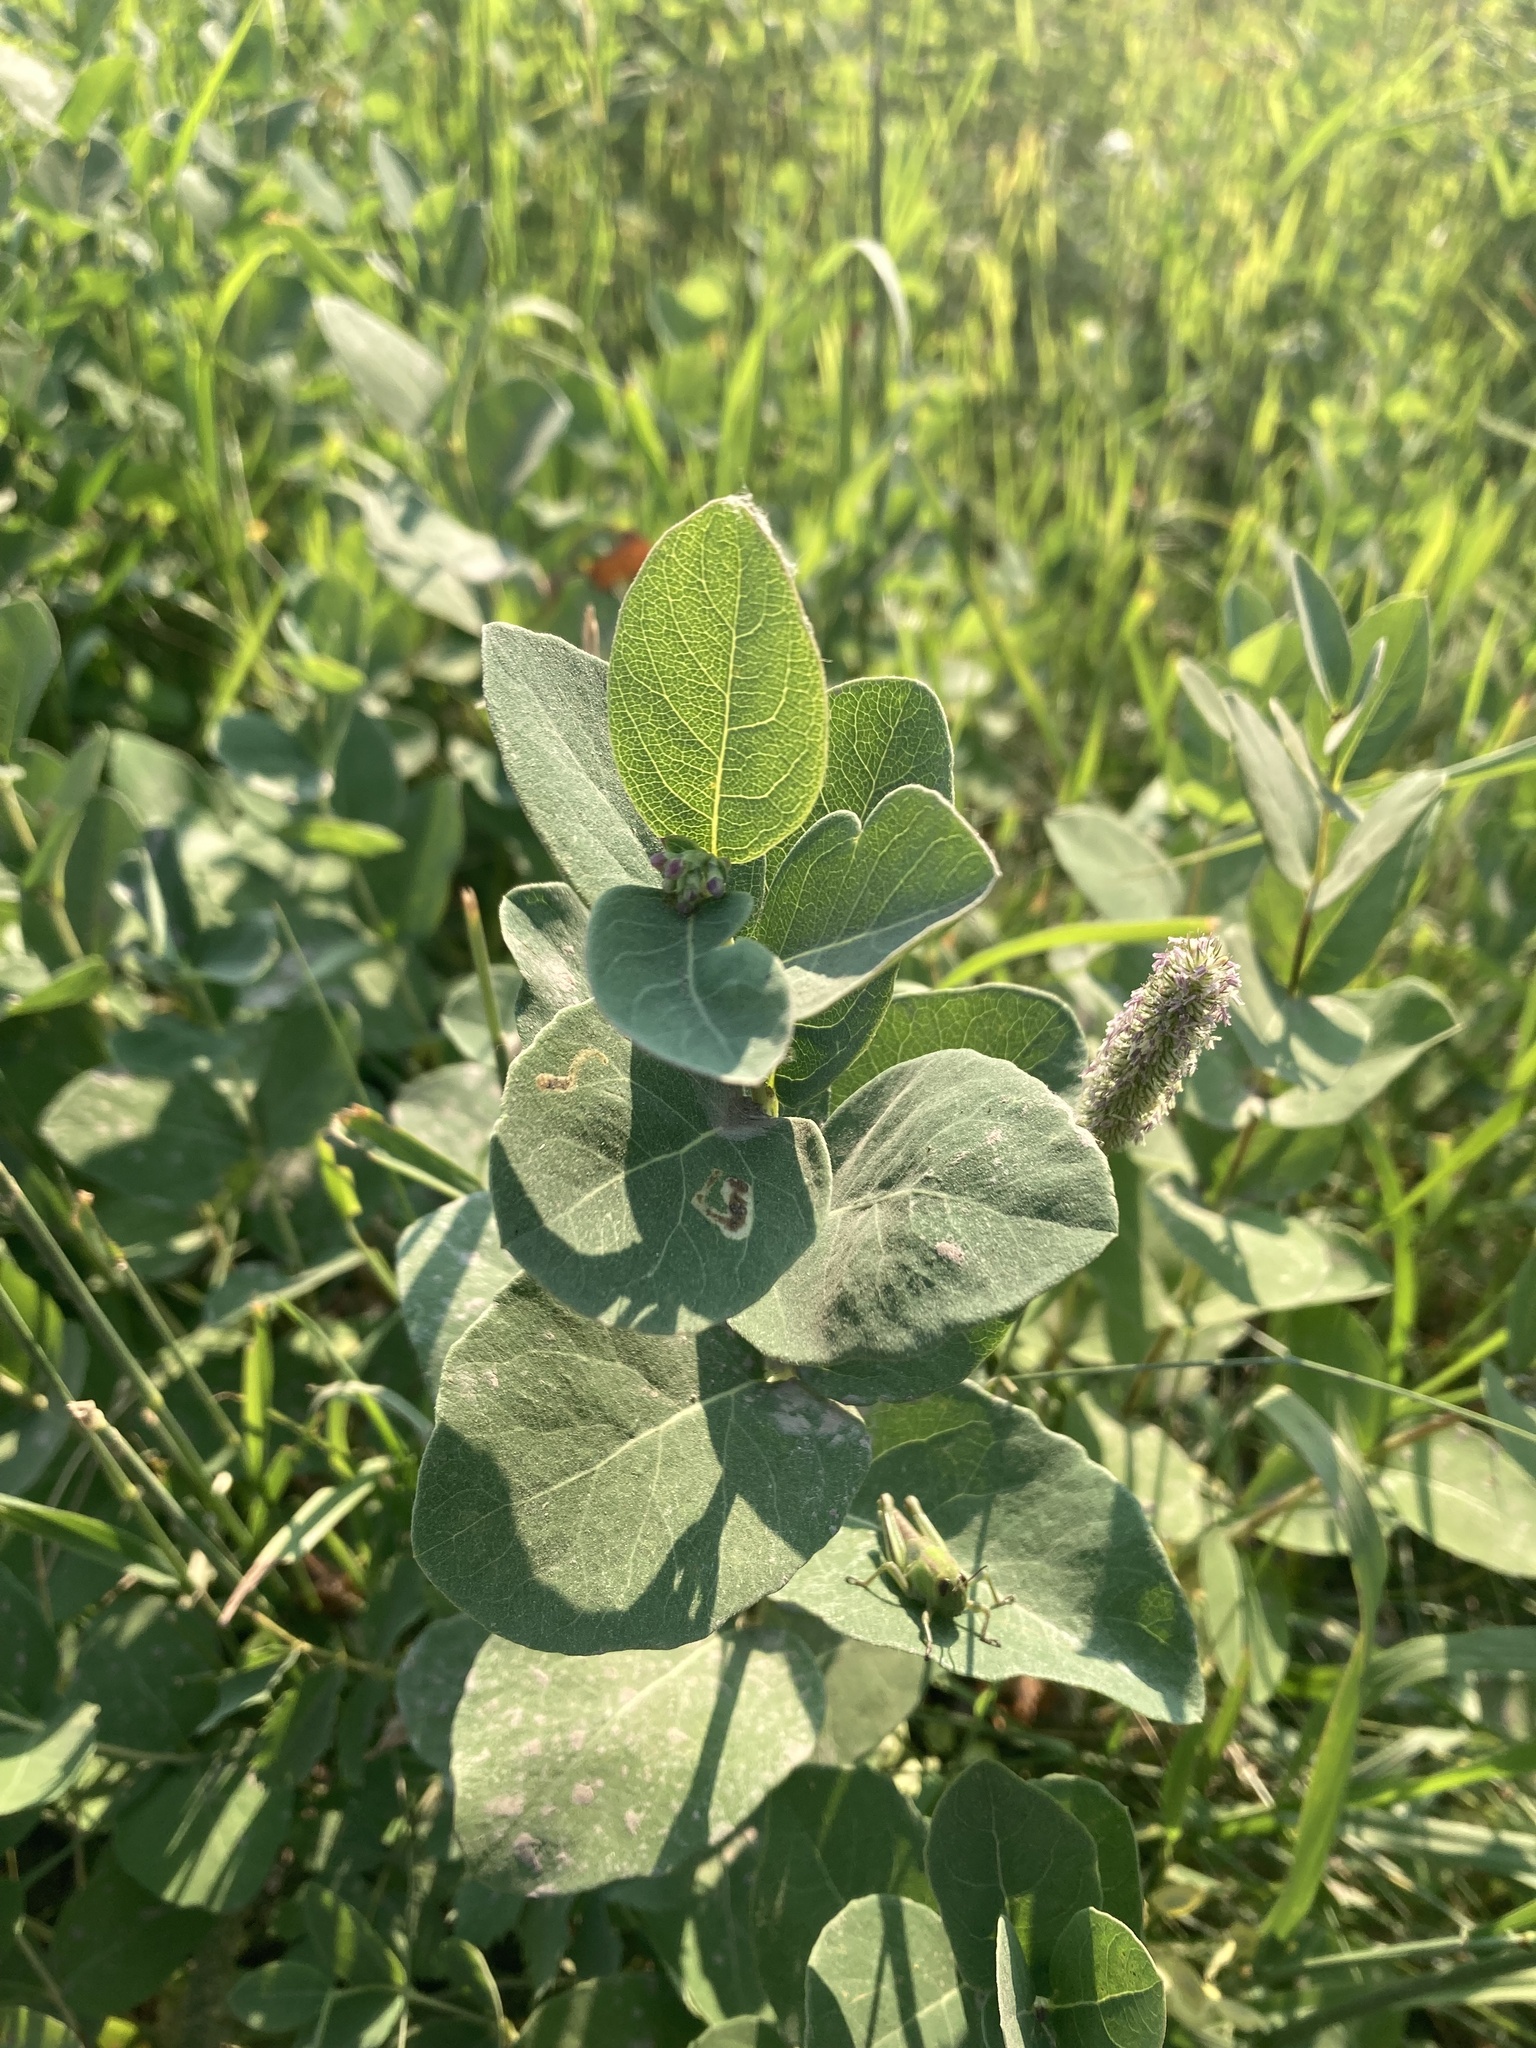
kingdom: Plantae
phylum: Tracheophyta
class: Magnoliopsida
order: Dipsacales
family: Caprifoliaceae
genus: Symphoricarpos
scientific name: Symphoricarpos occidentalis
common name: Wolfberry
